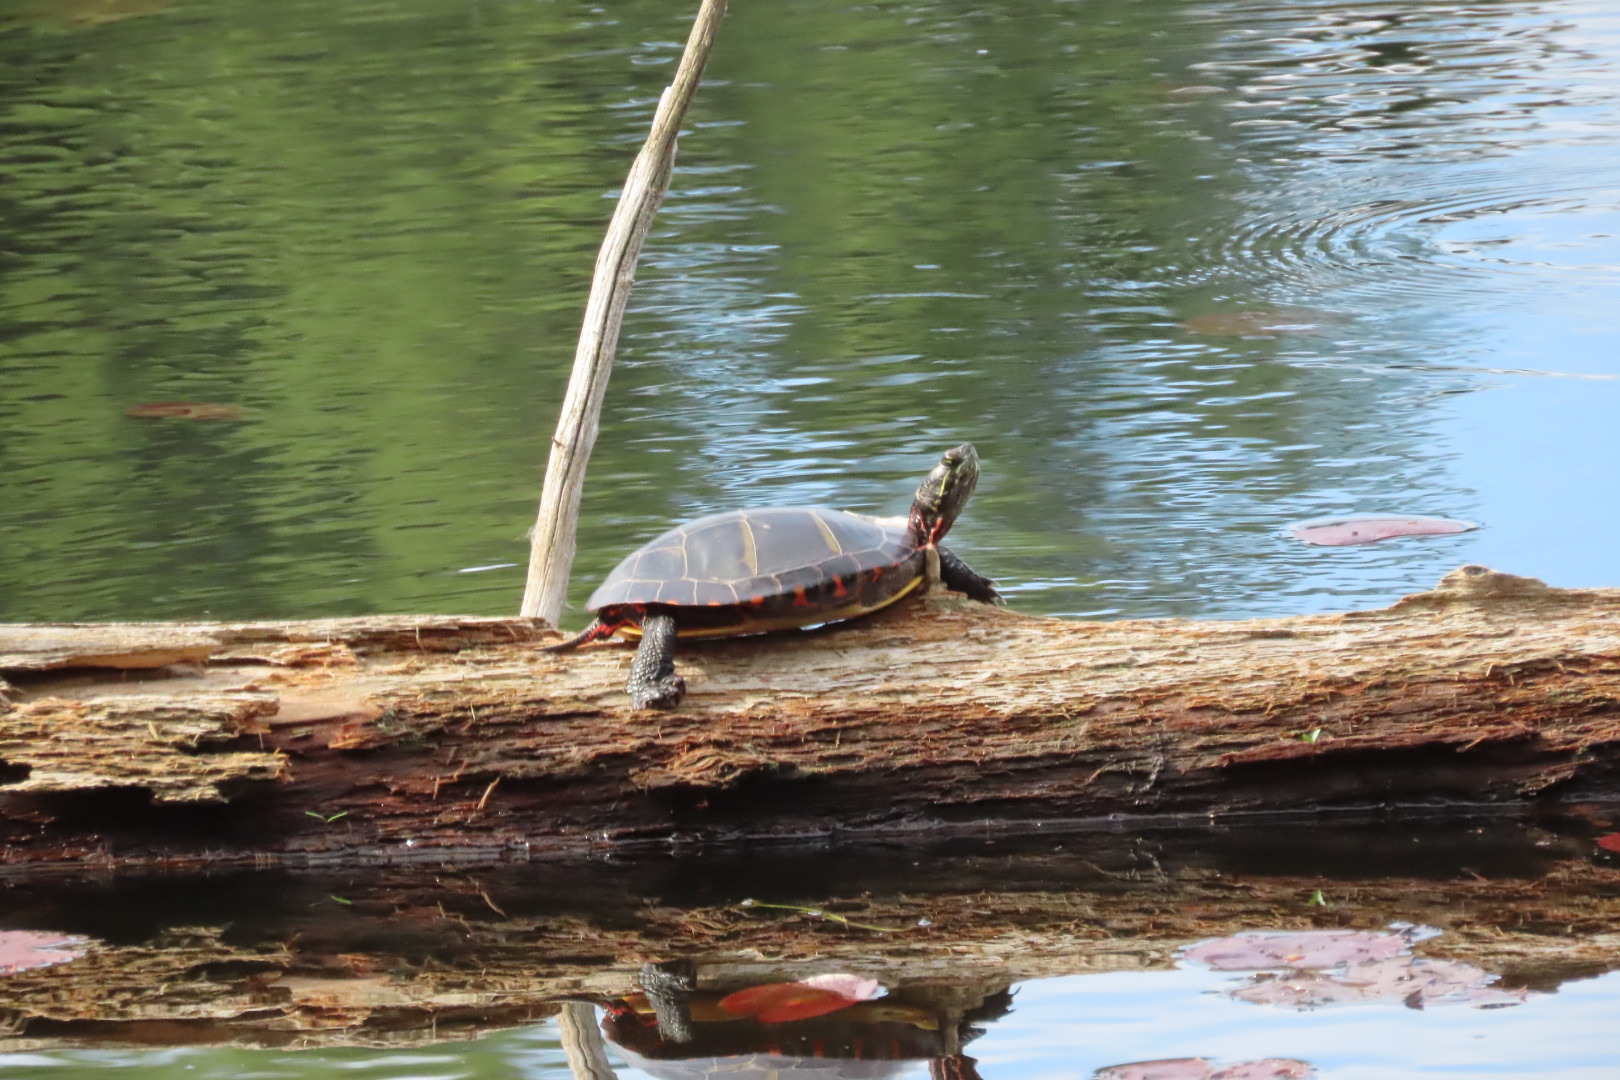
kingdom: Animalia
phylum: Chordata
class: Testudines
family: Emydidae
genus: Chrysemys
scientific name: Chrysemys picta
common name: Painted turtle
